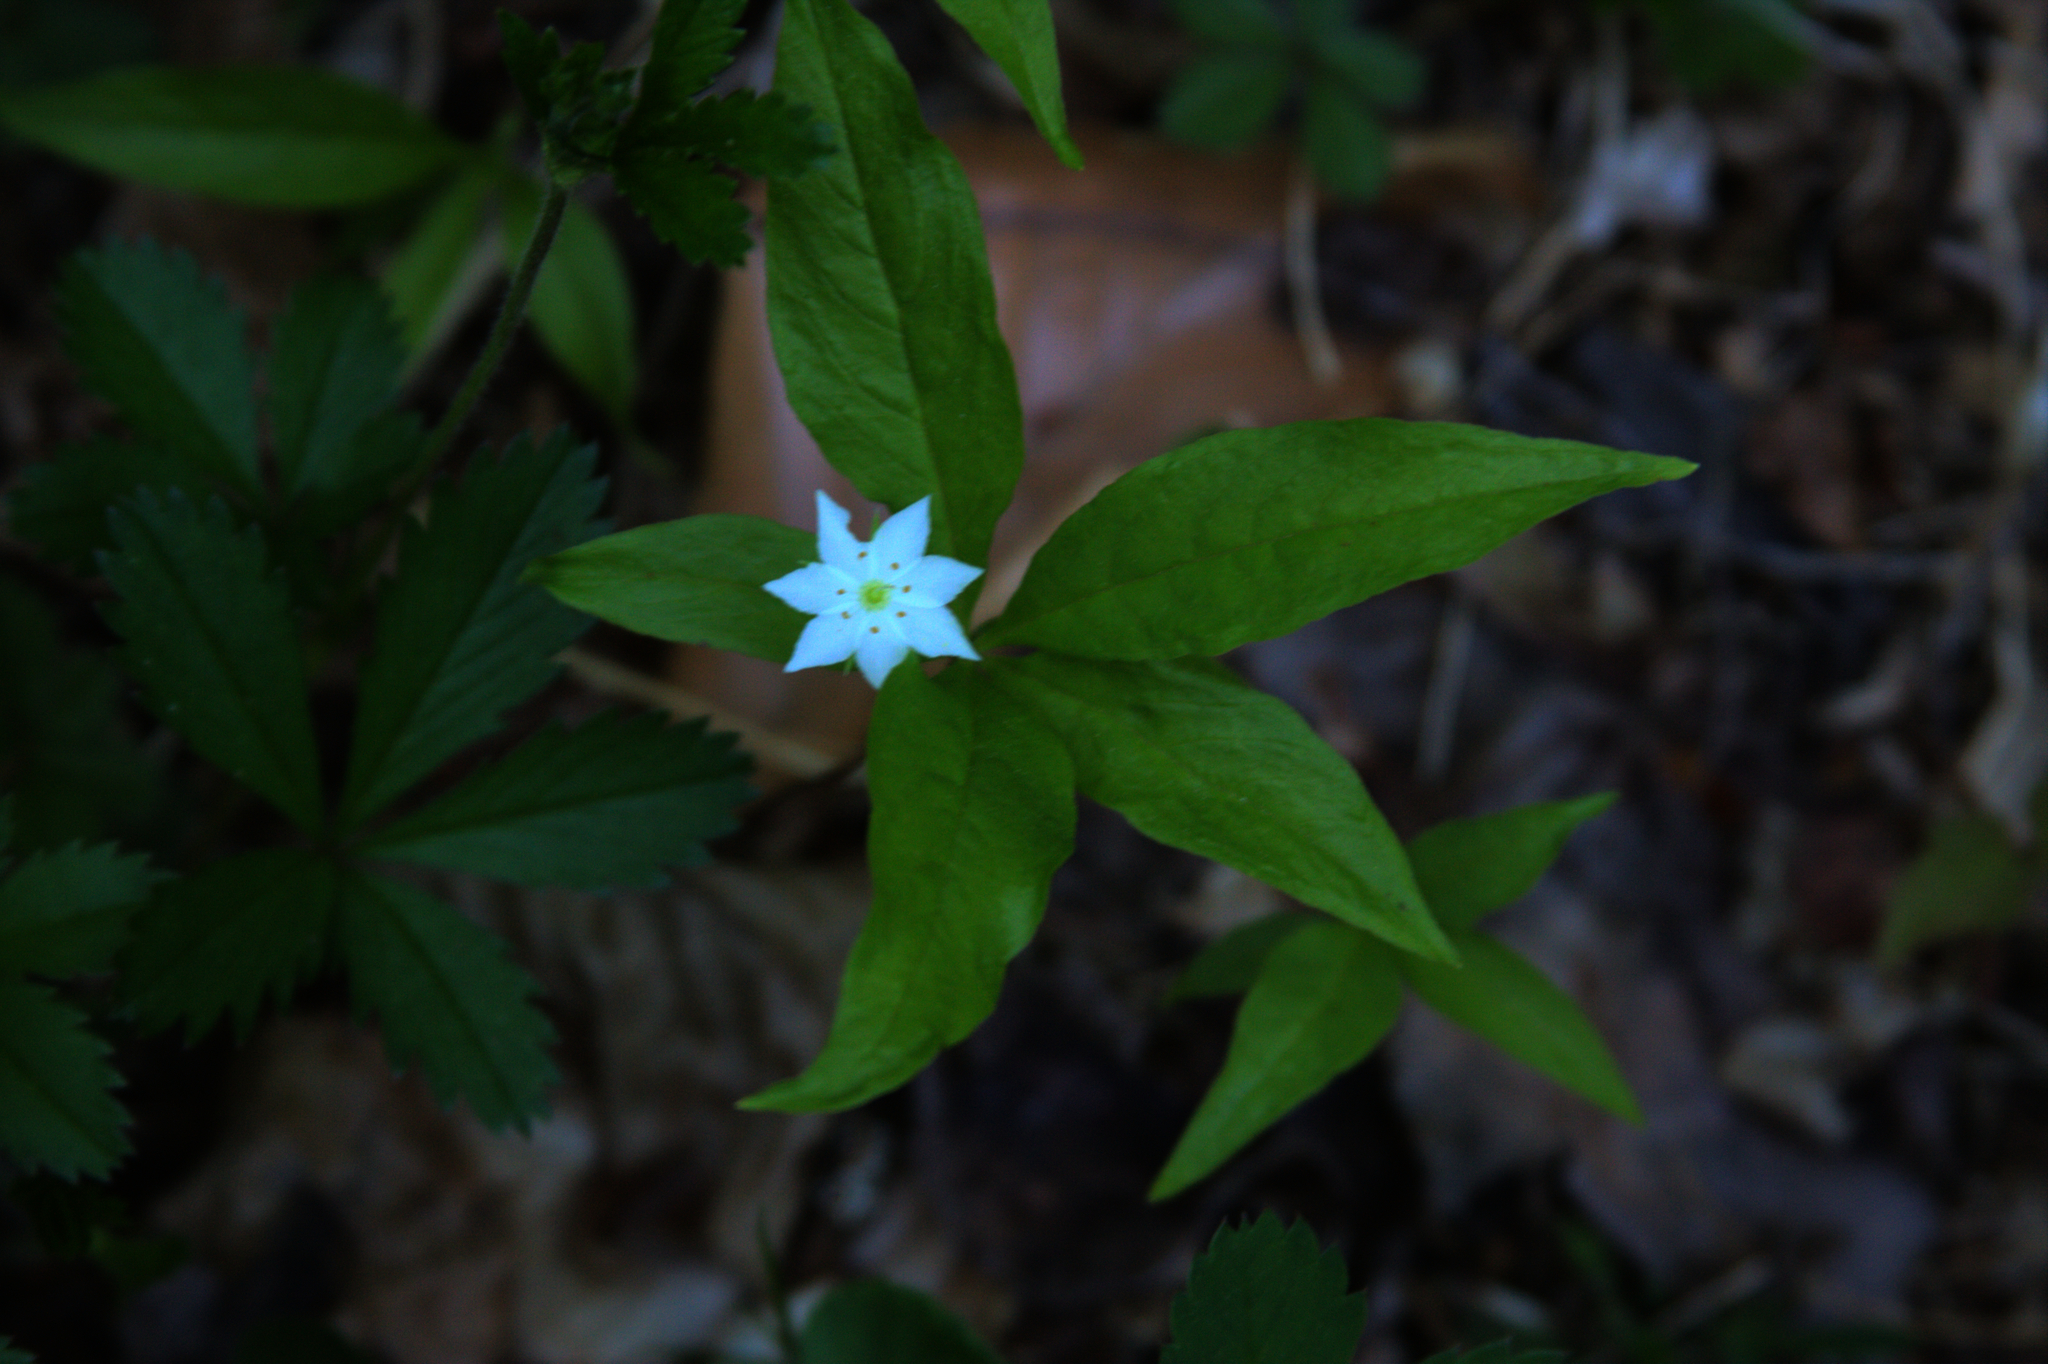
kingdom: Plantae
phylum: Tracheophyta
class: Magnoliopsida
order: Ericales
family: Primulaceae
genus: Lysimachia
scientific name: Lysimachia borealis
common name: American starflower
